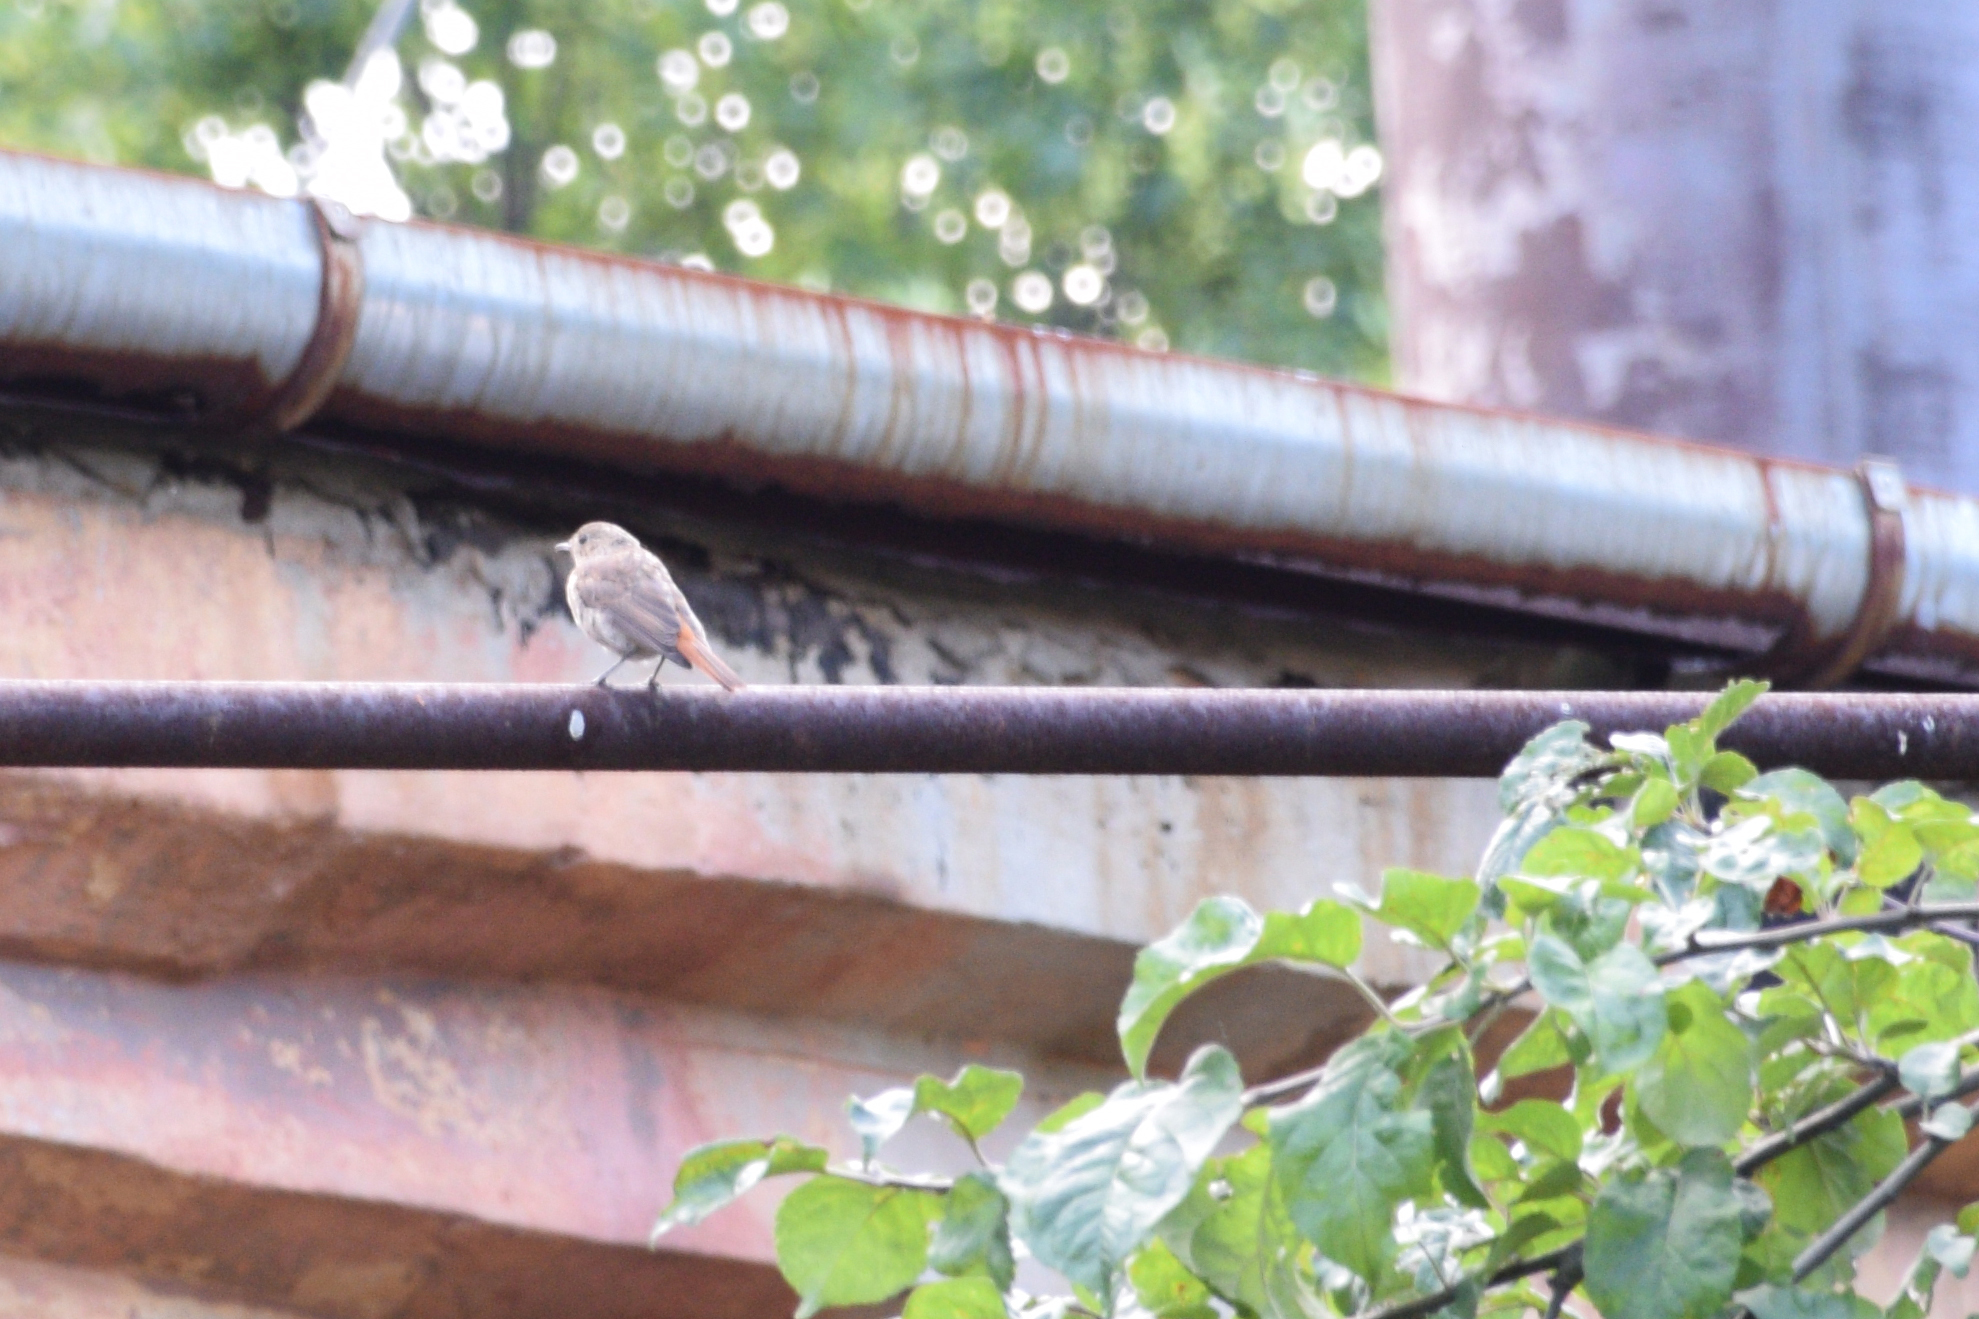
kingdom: Animalia
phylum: Chordata
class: Aves
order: Passeriformes
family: Muscicapidae
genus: Phoenicurus
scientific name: Phoenicurus phoenicurus
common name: Common redstart
